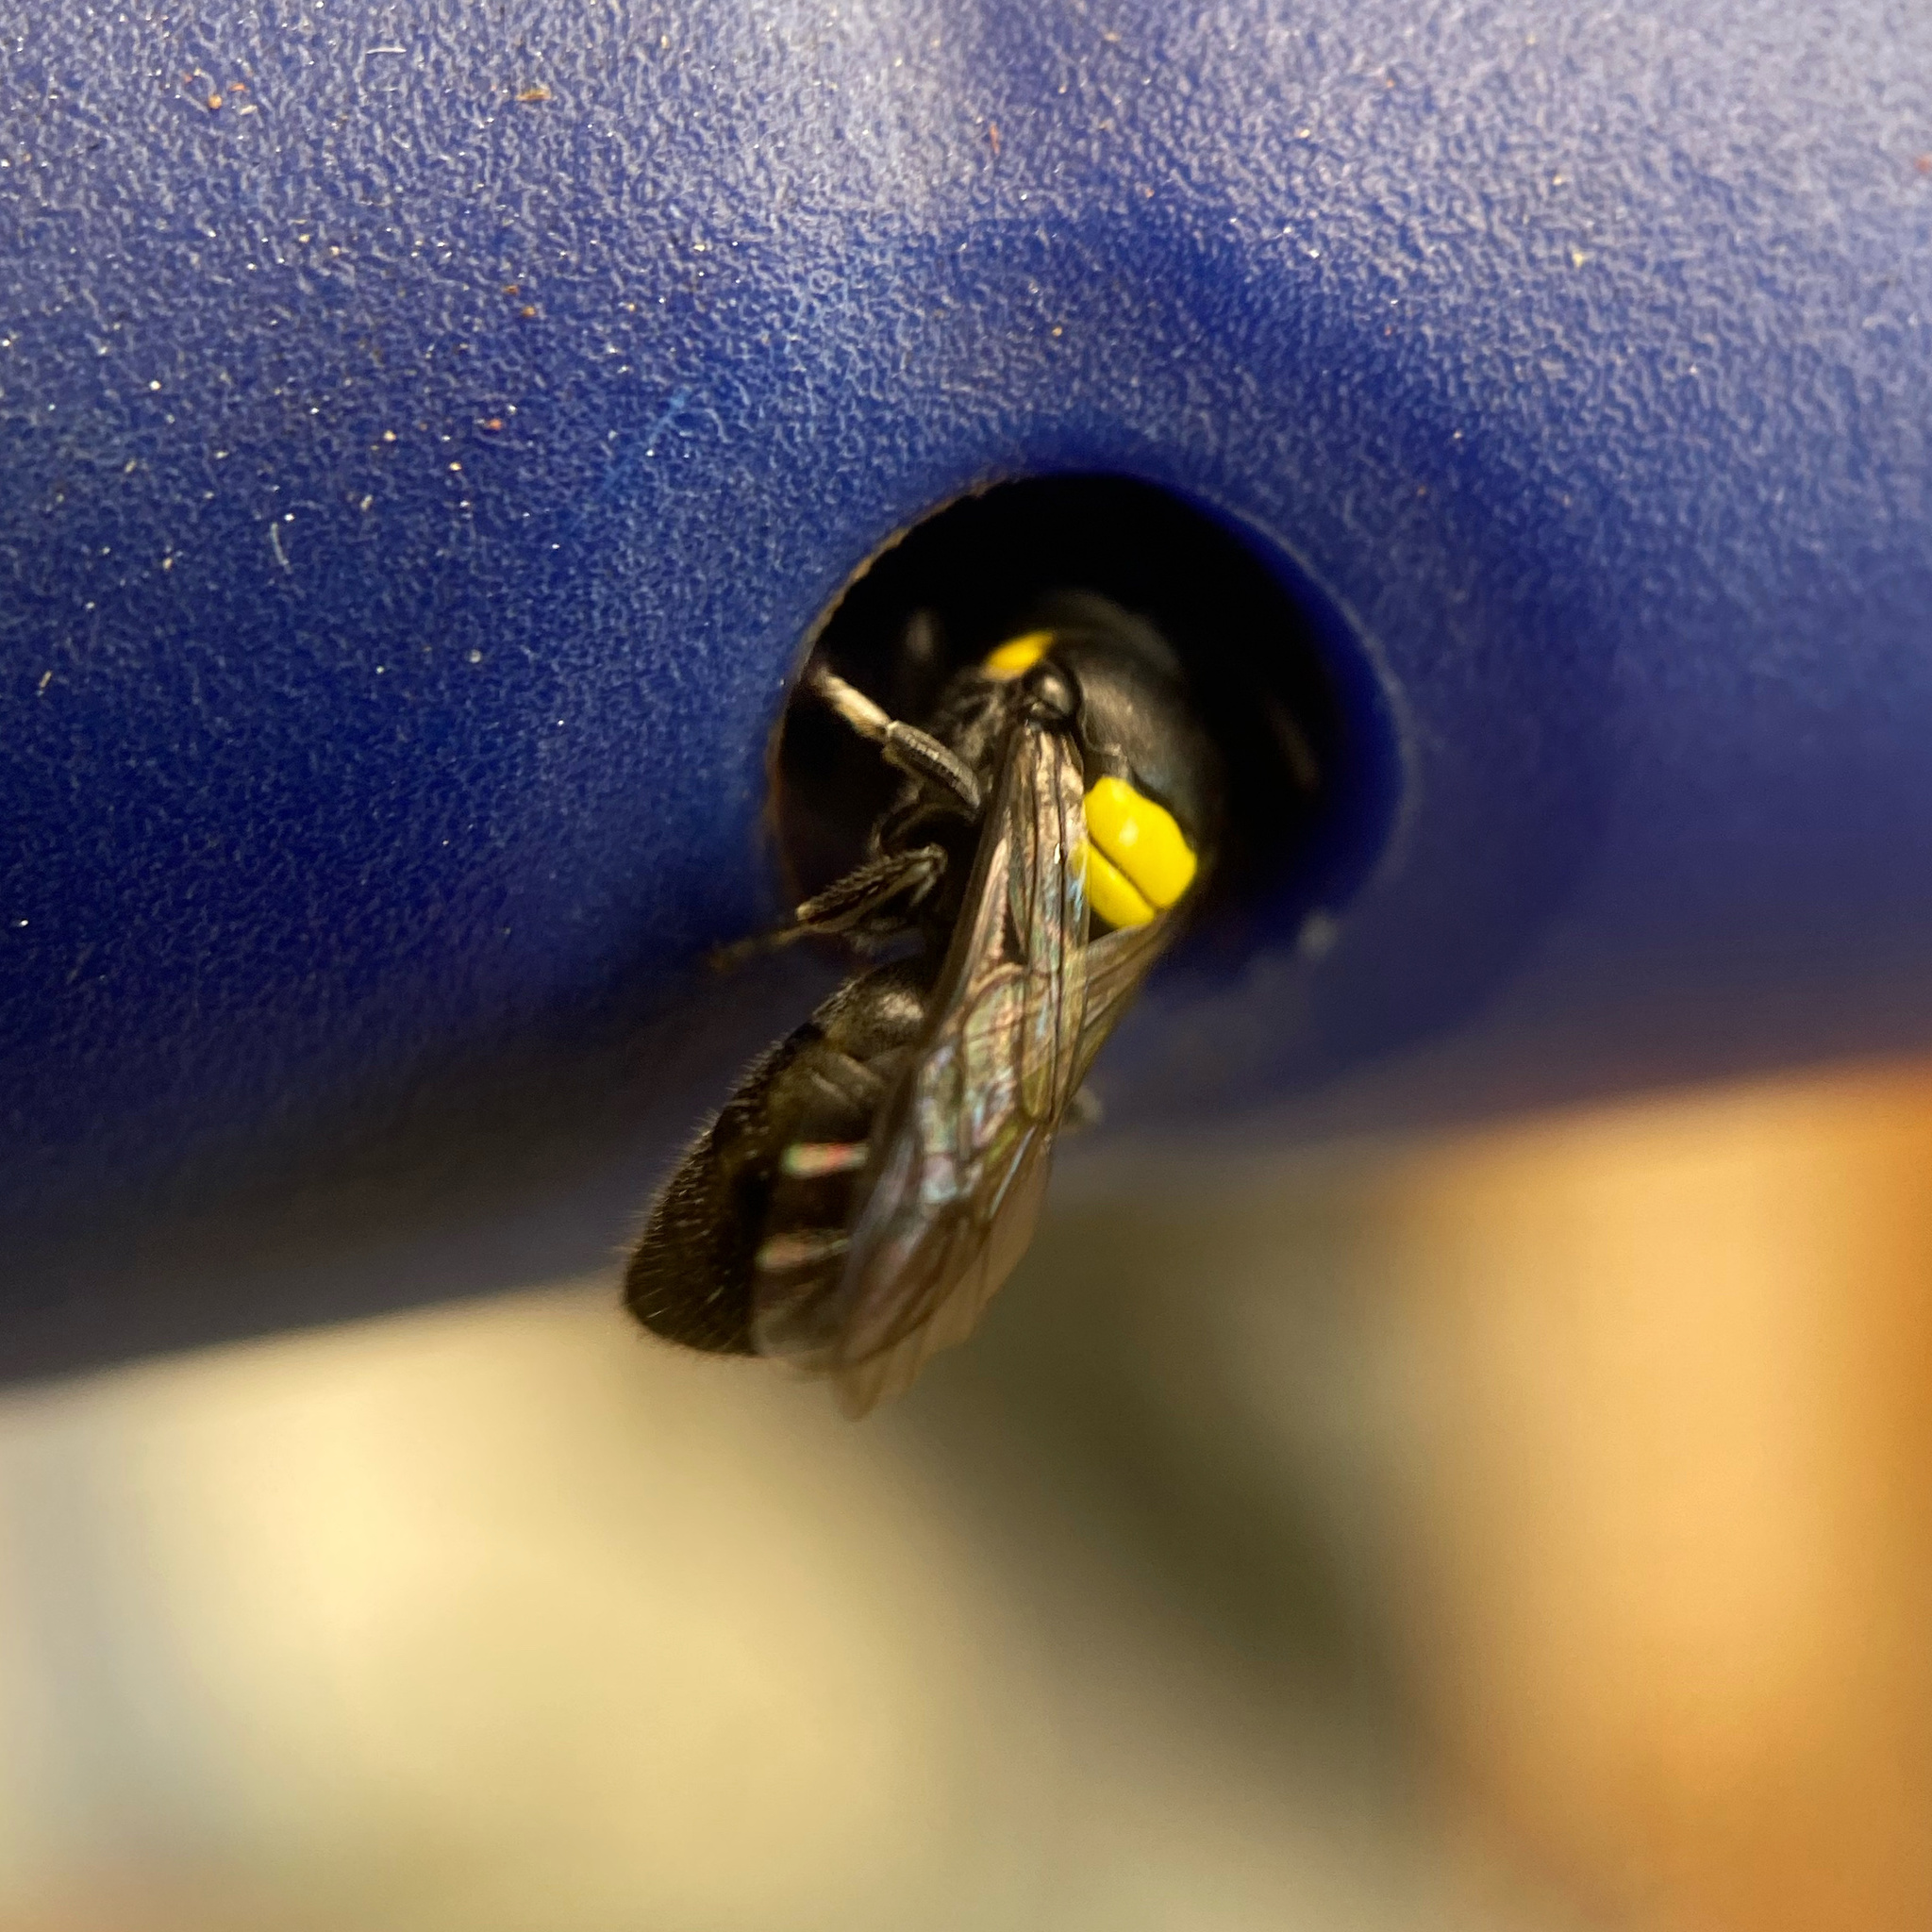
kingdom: Animalia
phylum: Arthropoda
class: Insecta
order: Hymenoptera
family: Colletidae
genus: Hylaeus
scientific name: Hylaeus nubilosus
